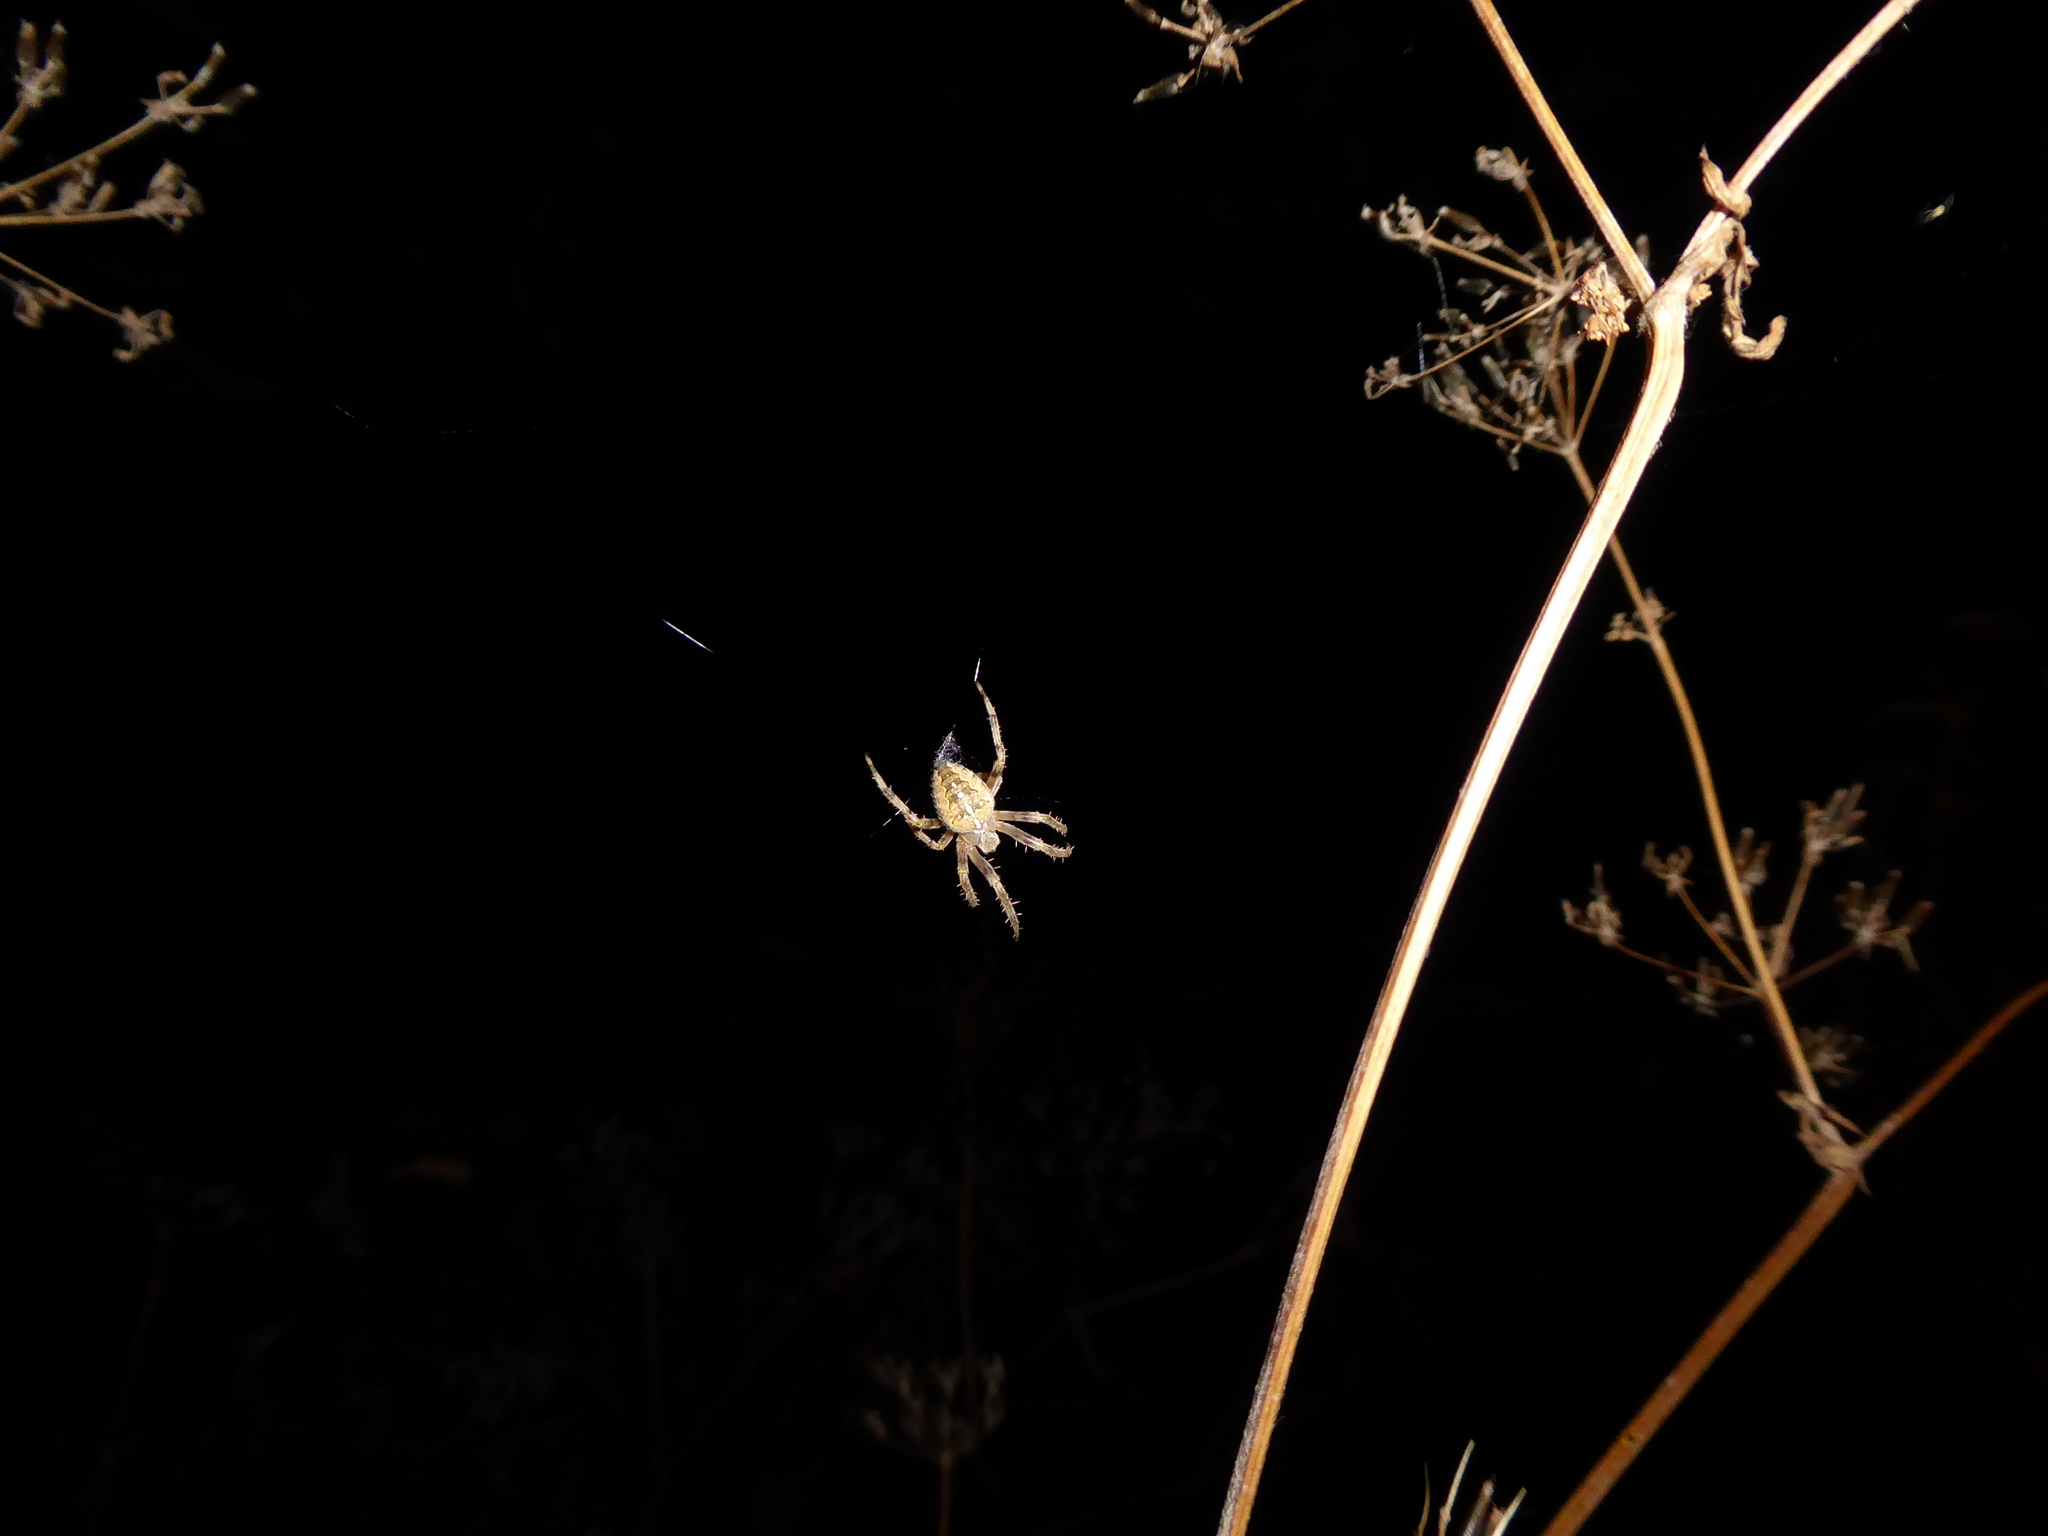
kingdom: Animalia
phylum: Arthropoda
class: Arachnida
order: Araneae
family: Araneidae
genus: Araneus
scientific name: Araneus diadematus
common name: Cross orbweaver
